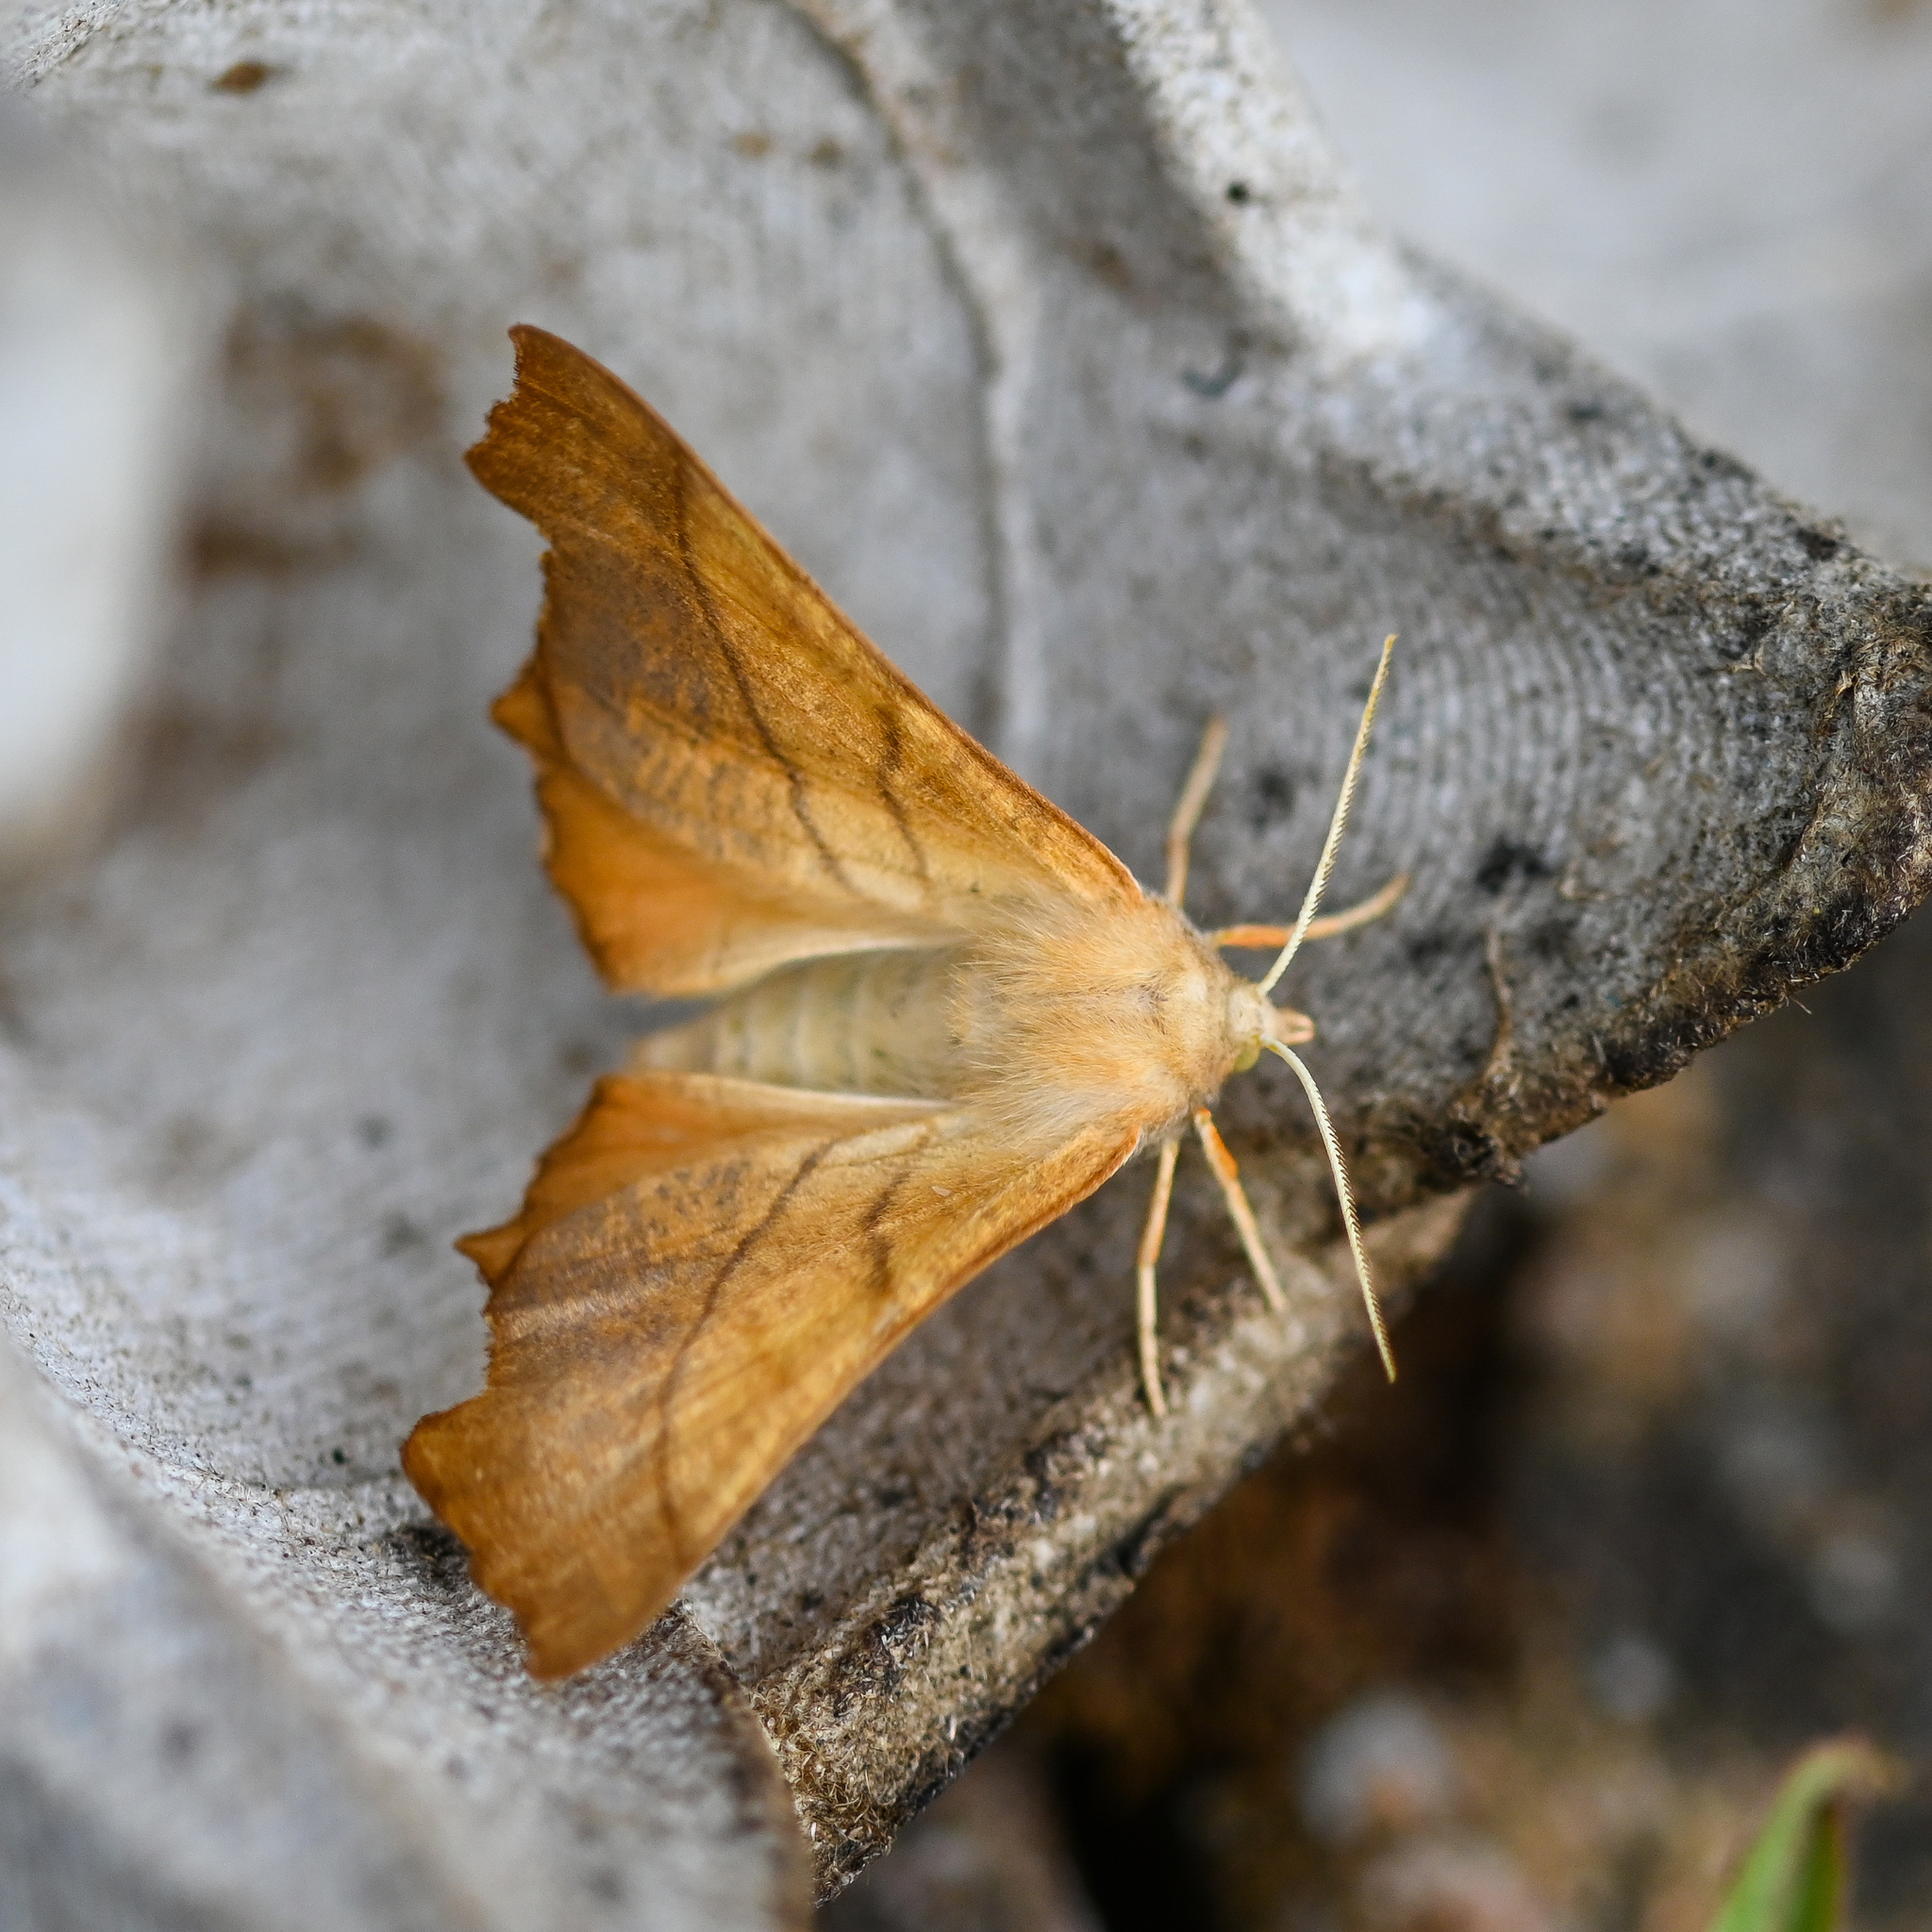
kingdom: Animalia
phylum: Arthropoda
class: Insecta
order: Lepidoptera
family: Geometridae
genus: Ennomos
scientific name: Ennomos fuscantaria
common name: Dusky thorn
